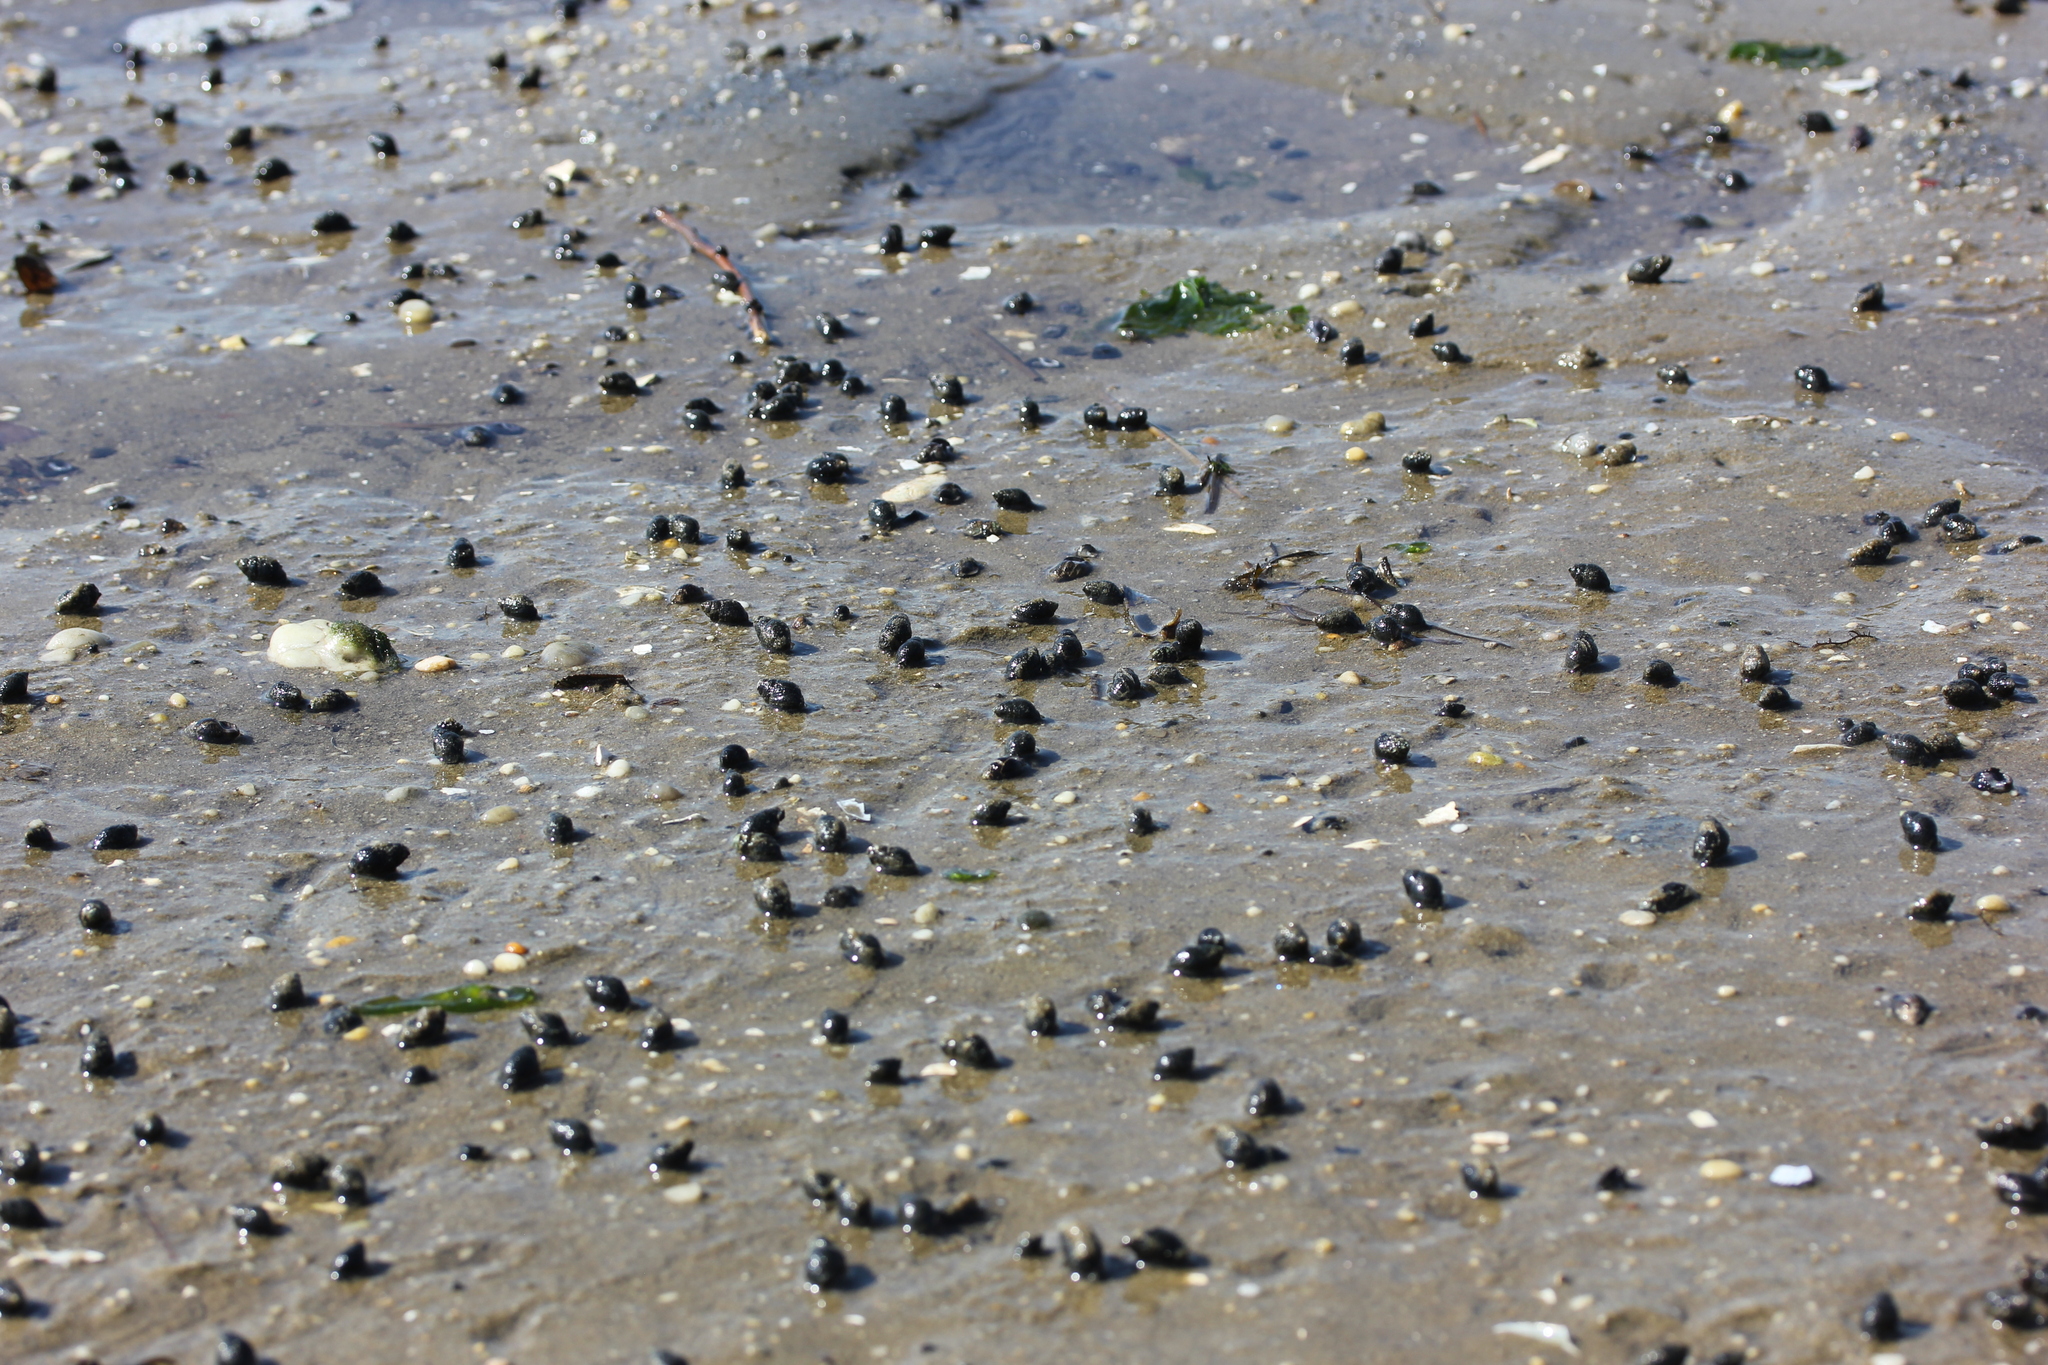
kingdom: Animalia
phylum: Mollusca
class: Gastropoda
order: Neogastropoda
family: Nassariidae
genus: Ilyanassa
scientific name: Ilyanassa obsoleta
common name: Eastern mudsnail
